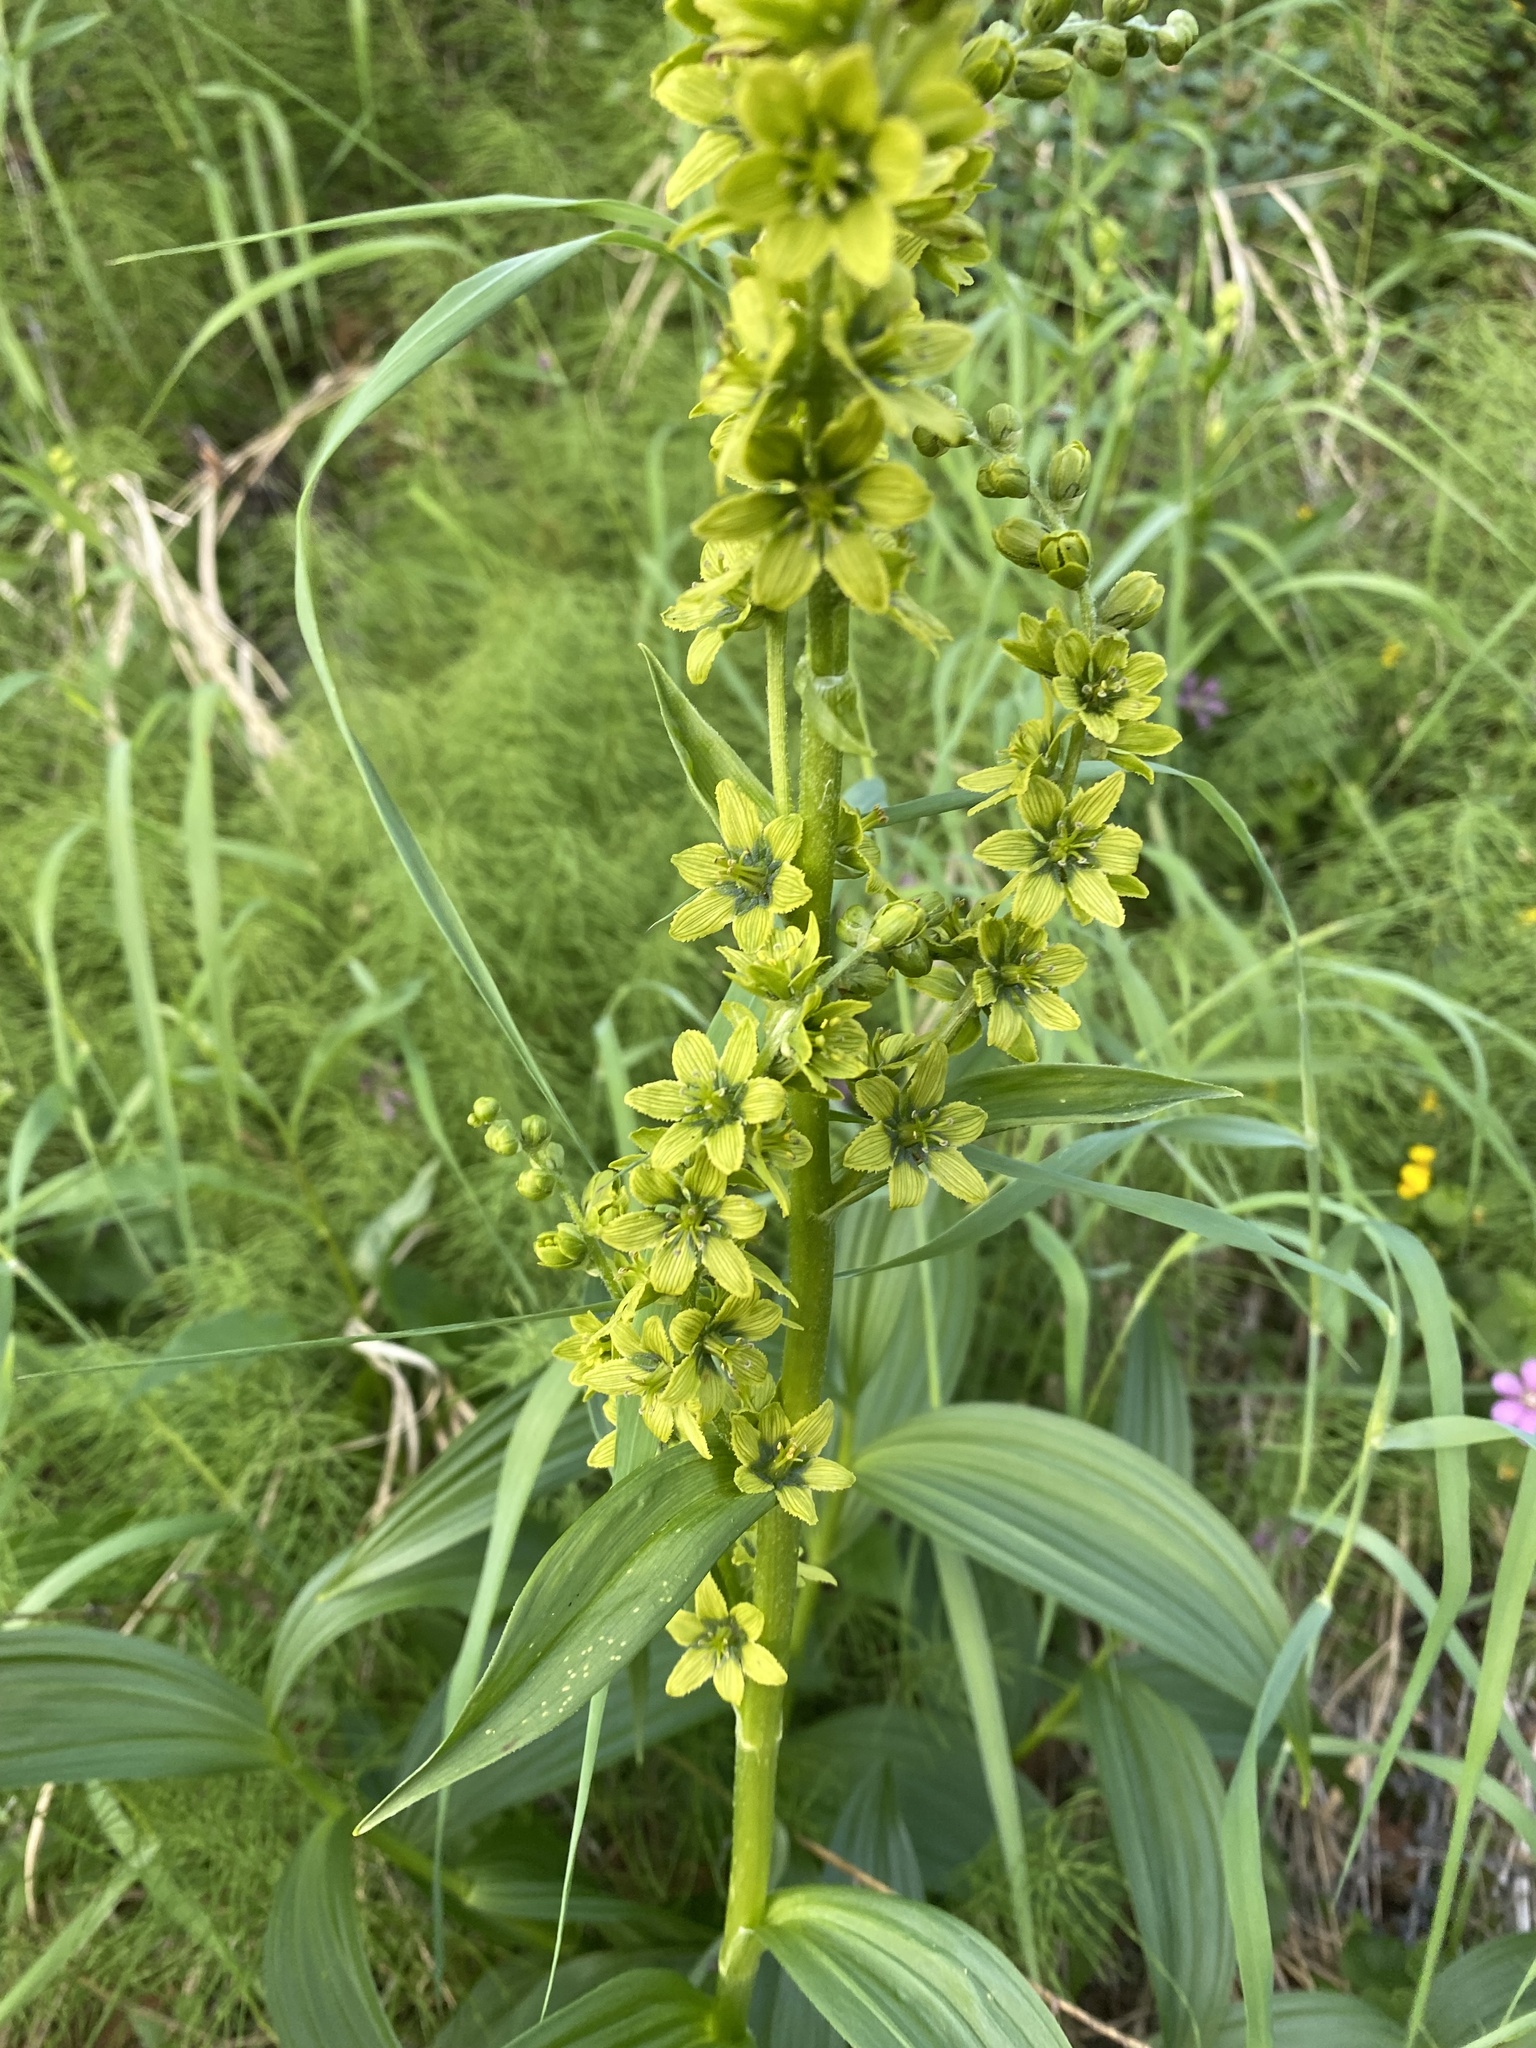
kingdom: Plantae
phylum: Tracheophyta
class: Liliopsida
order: Liliales
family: Melanthiaceae
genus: Veratrum
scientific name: Veratrum lobelianum
